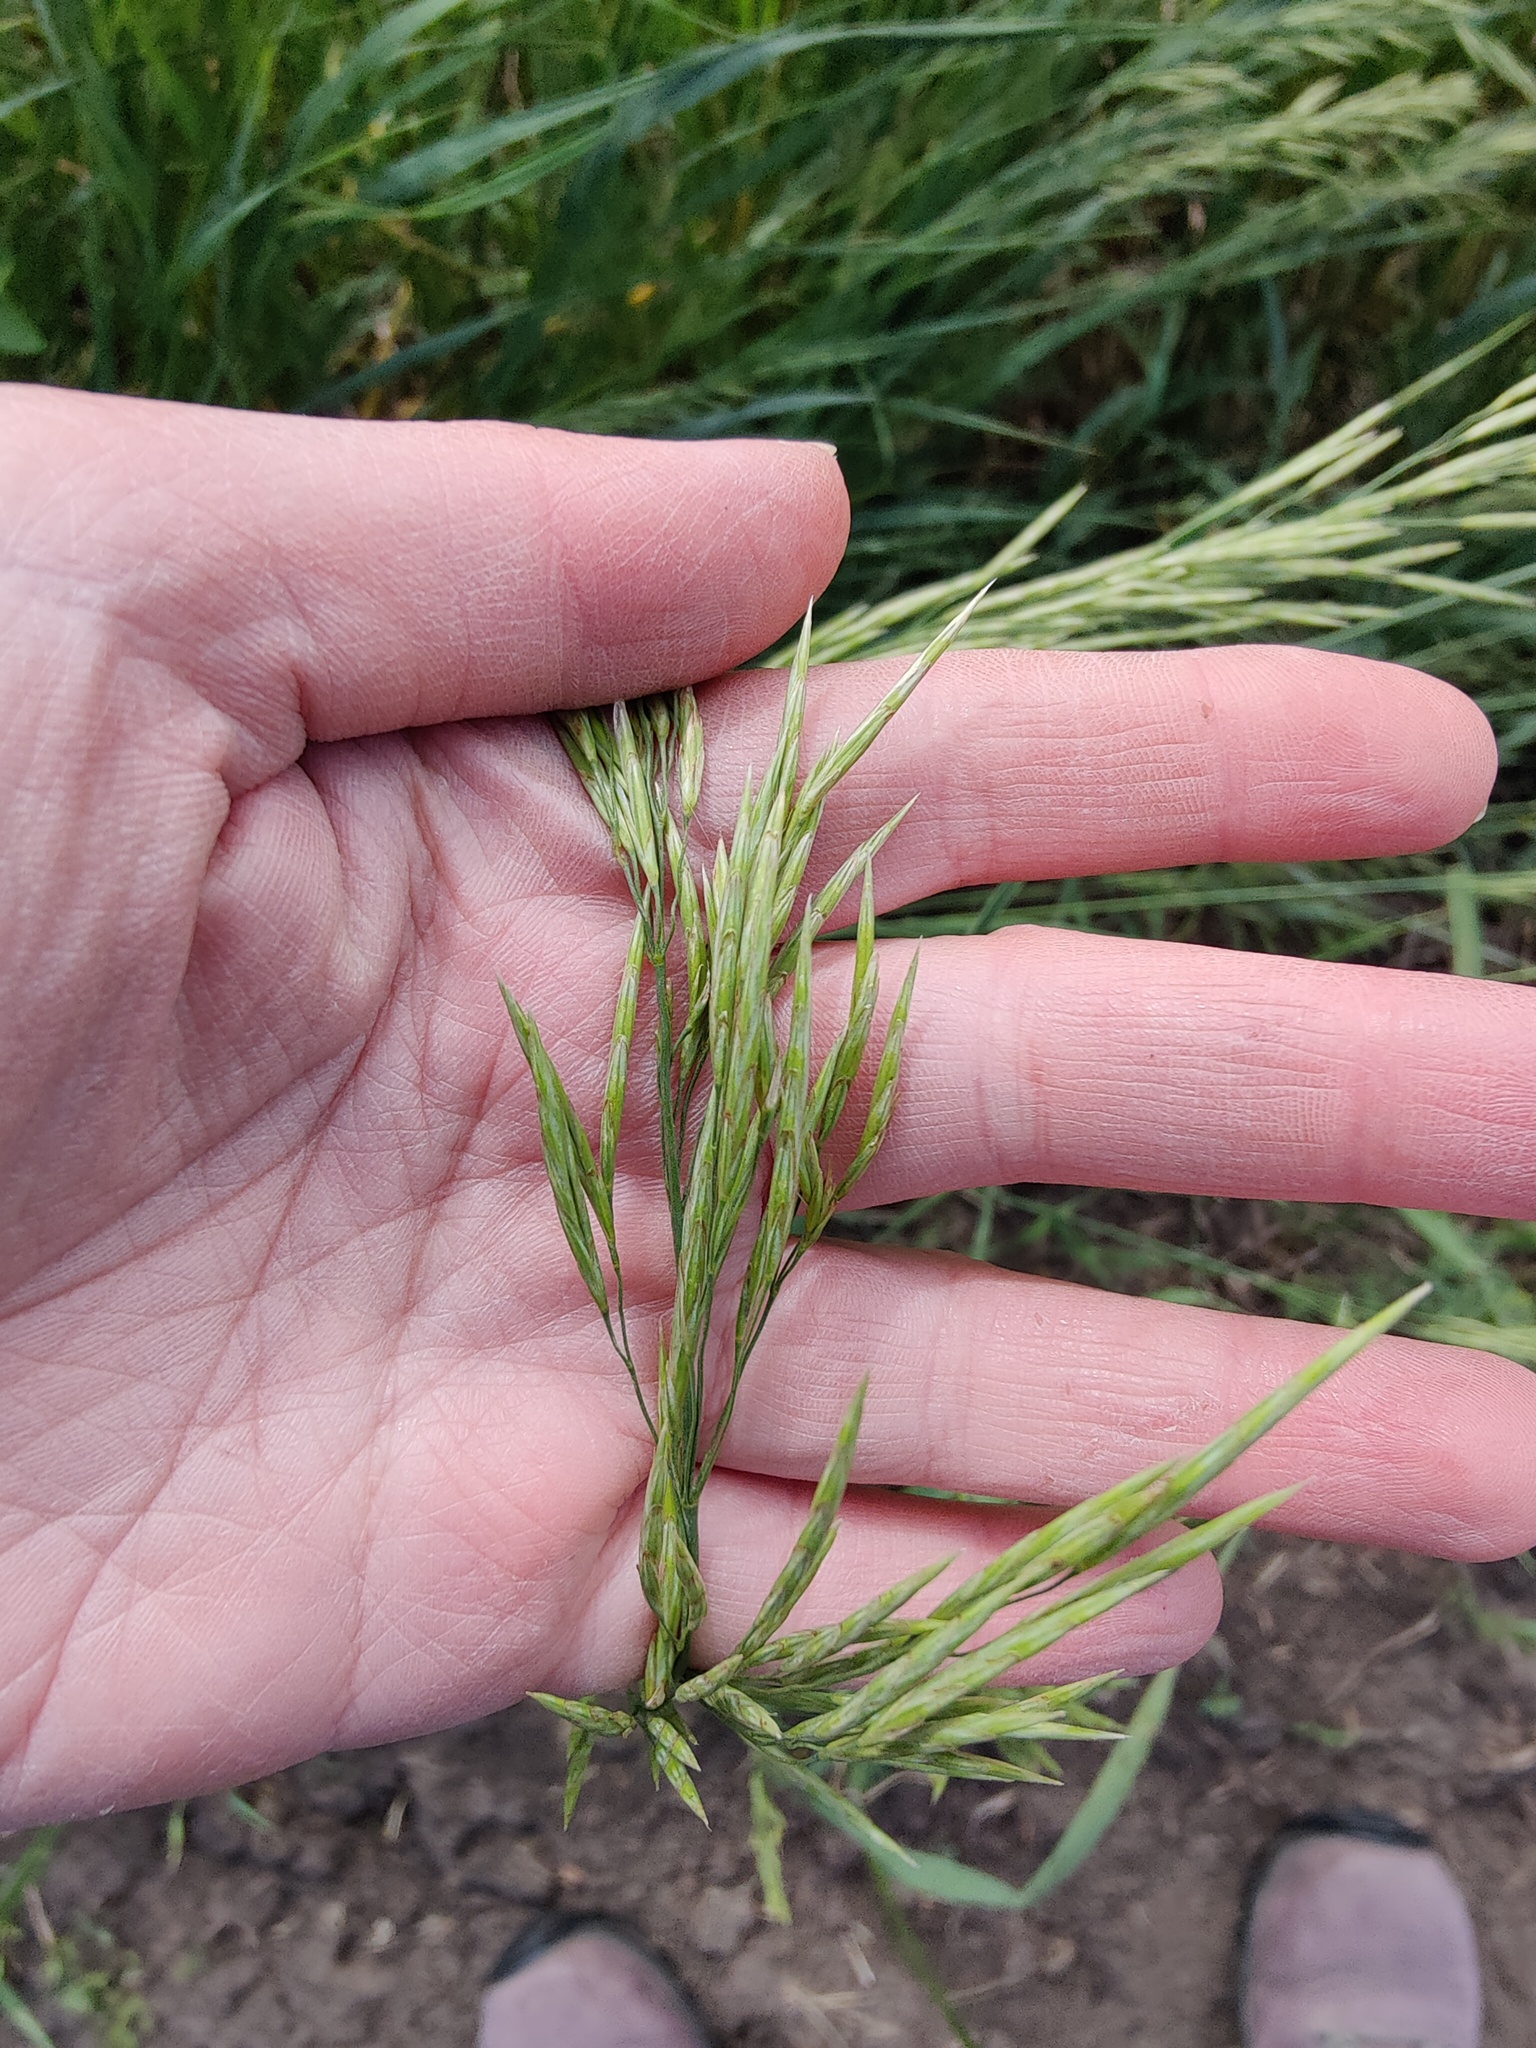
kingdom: Plantae
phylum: Tracheophyta
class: Liliopsida
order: Poales
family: Poaceae
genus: Bromus
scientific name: Bromus inermis
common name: Smooth brome
